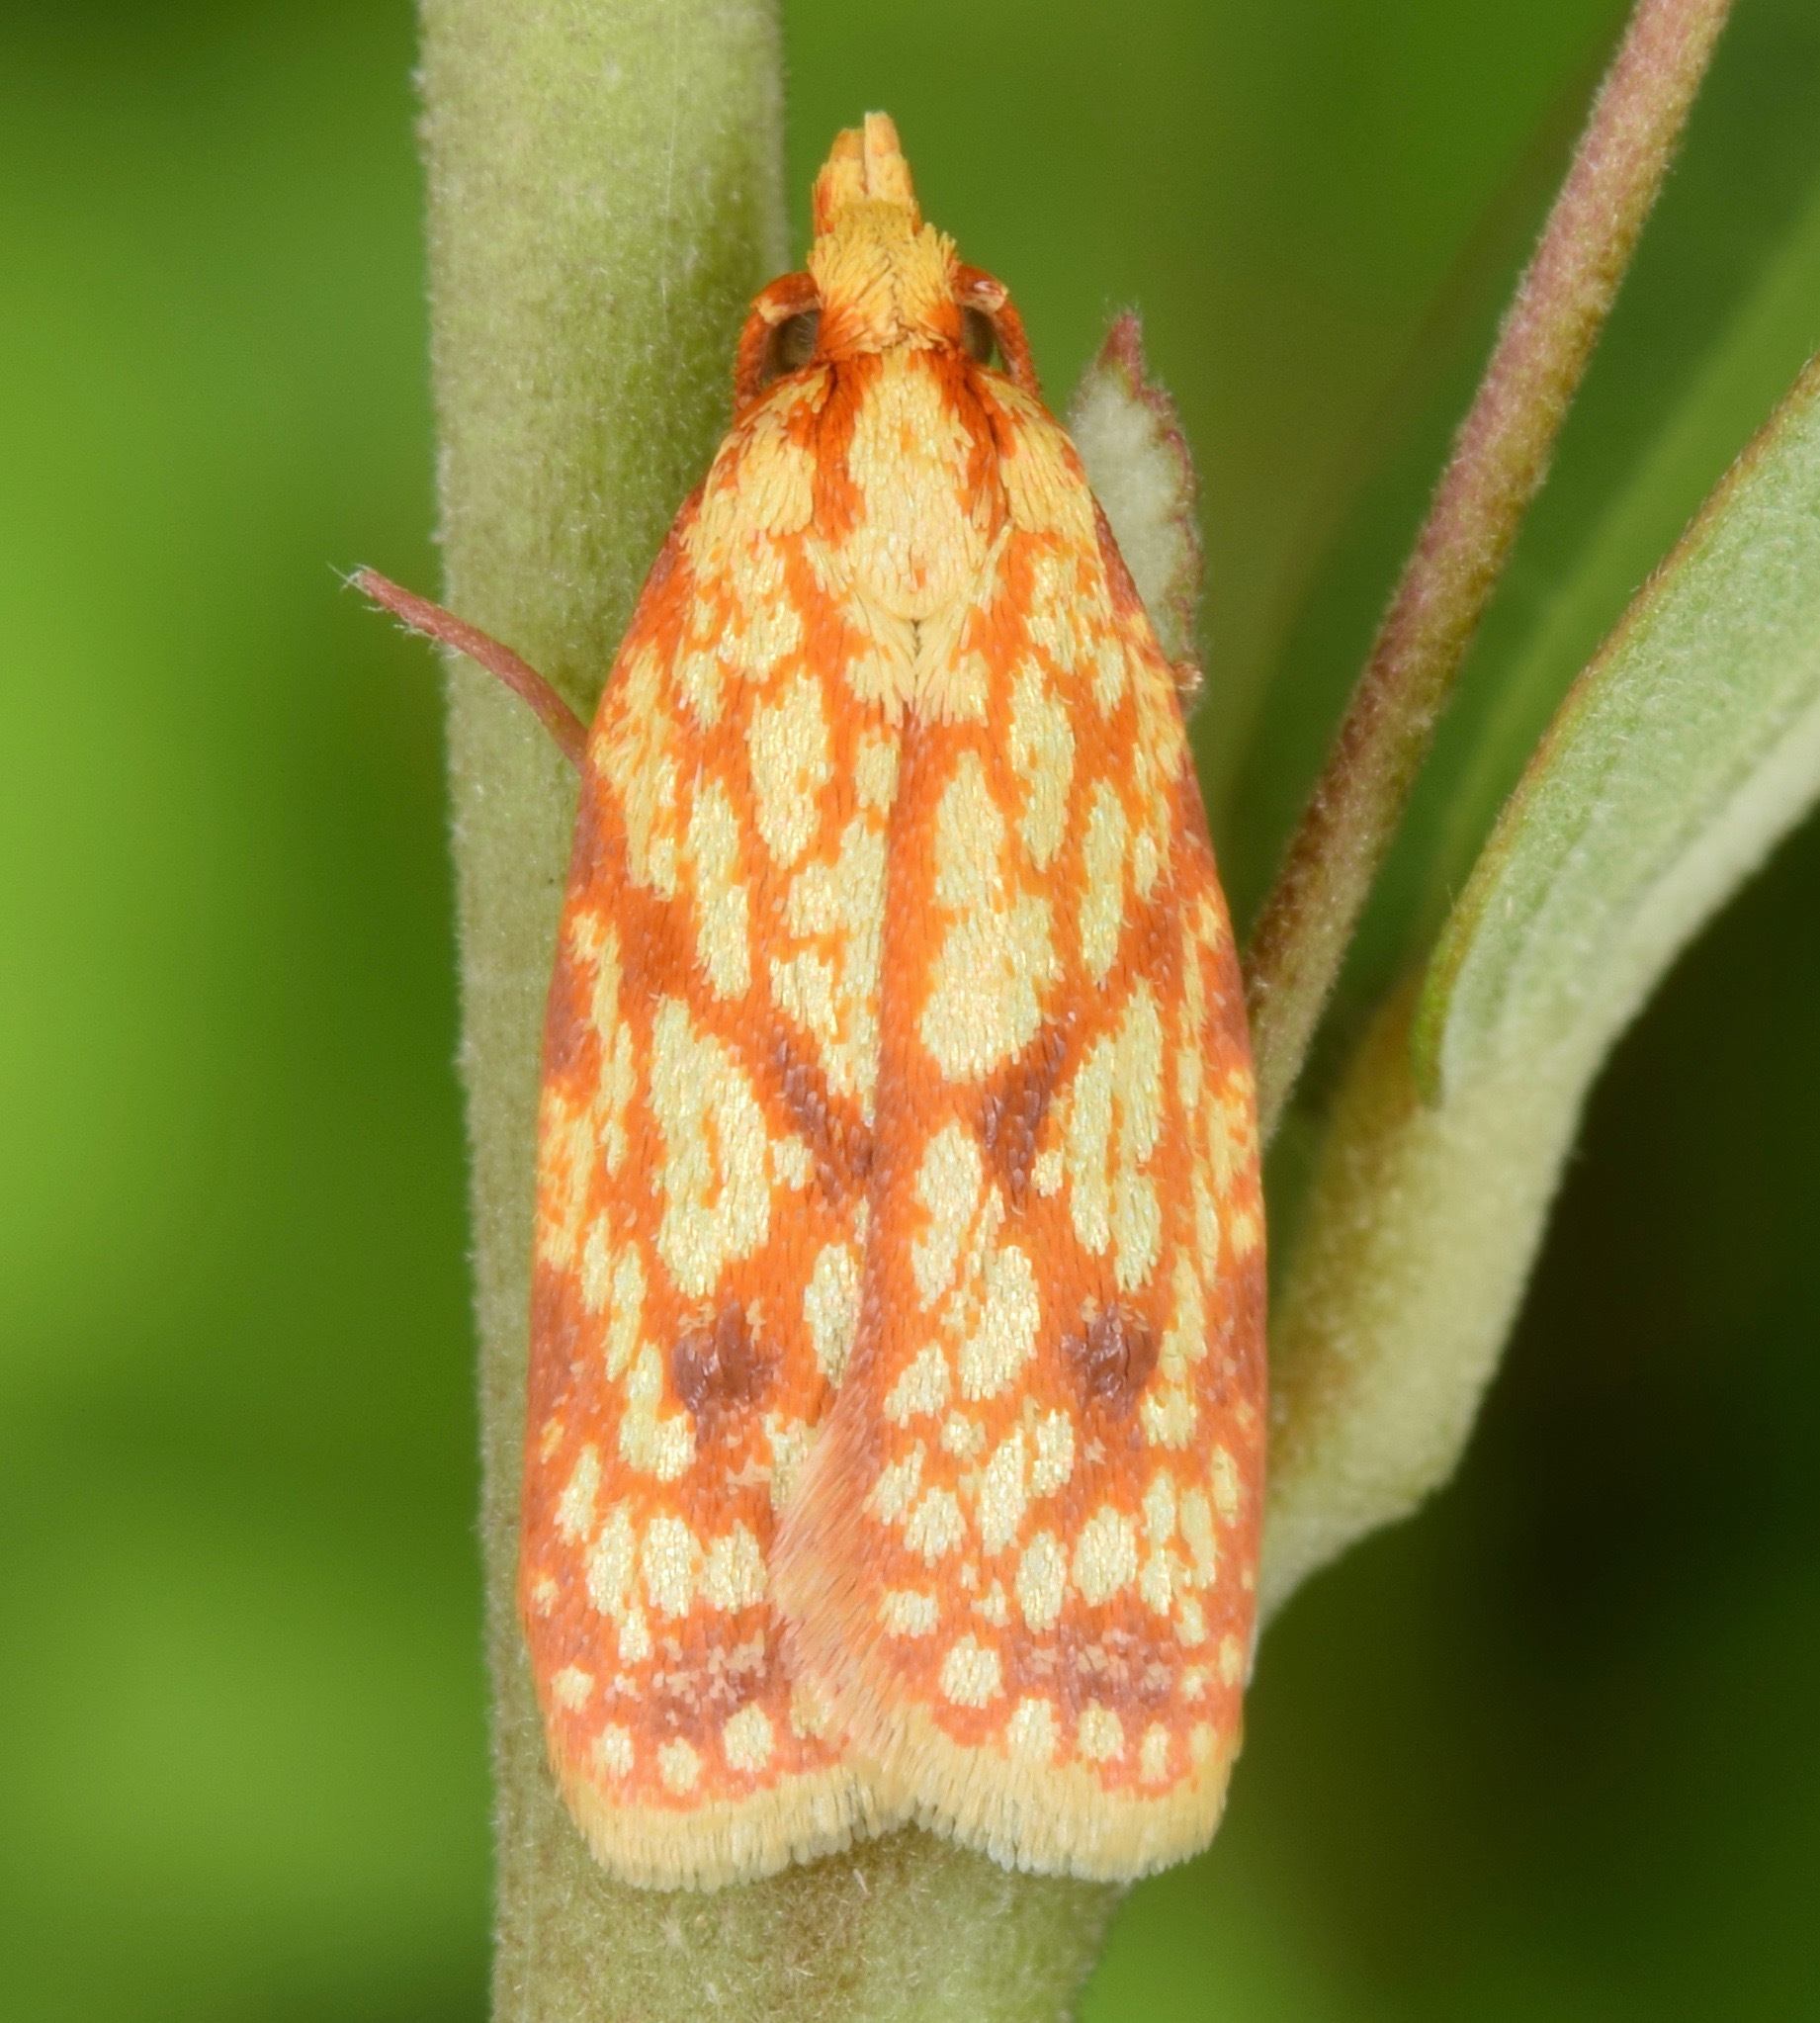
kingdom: Animalia
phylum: Arthropoda
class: Insecta
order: Lepidoptera
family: Tortricidae
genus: Sparganothis
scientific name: Sparganothis sulfureana
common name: Sparganothis fruitworm moth
